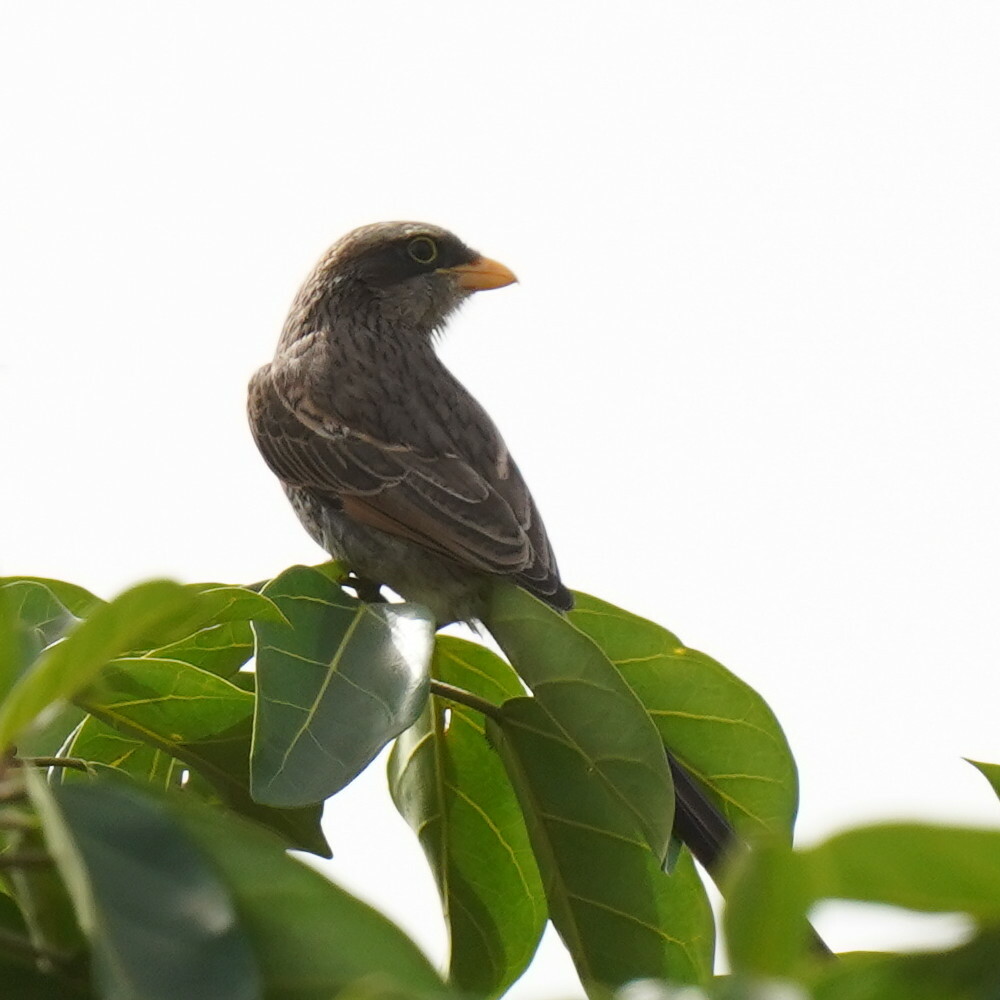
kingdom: Animalia
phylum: Chordata
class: Aves
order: Passeriformes
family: Laniidae
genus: Corvinella
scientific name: Corvinella corvina
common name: Yellow-billed shrike
